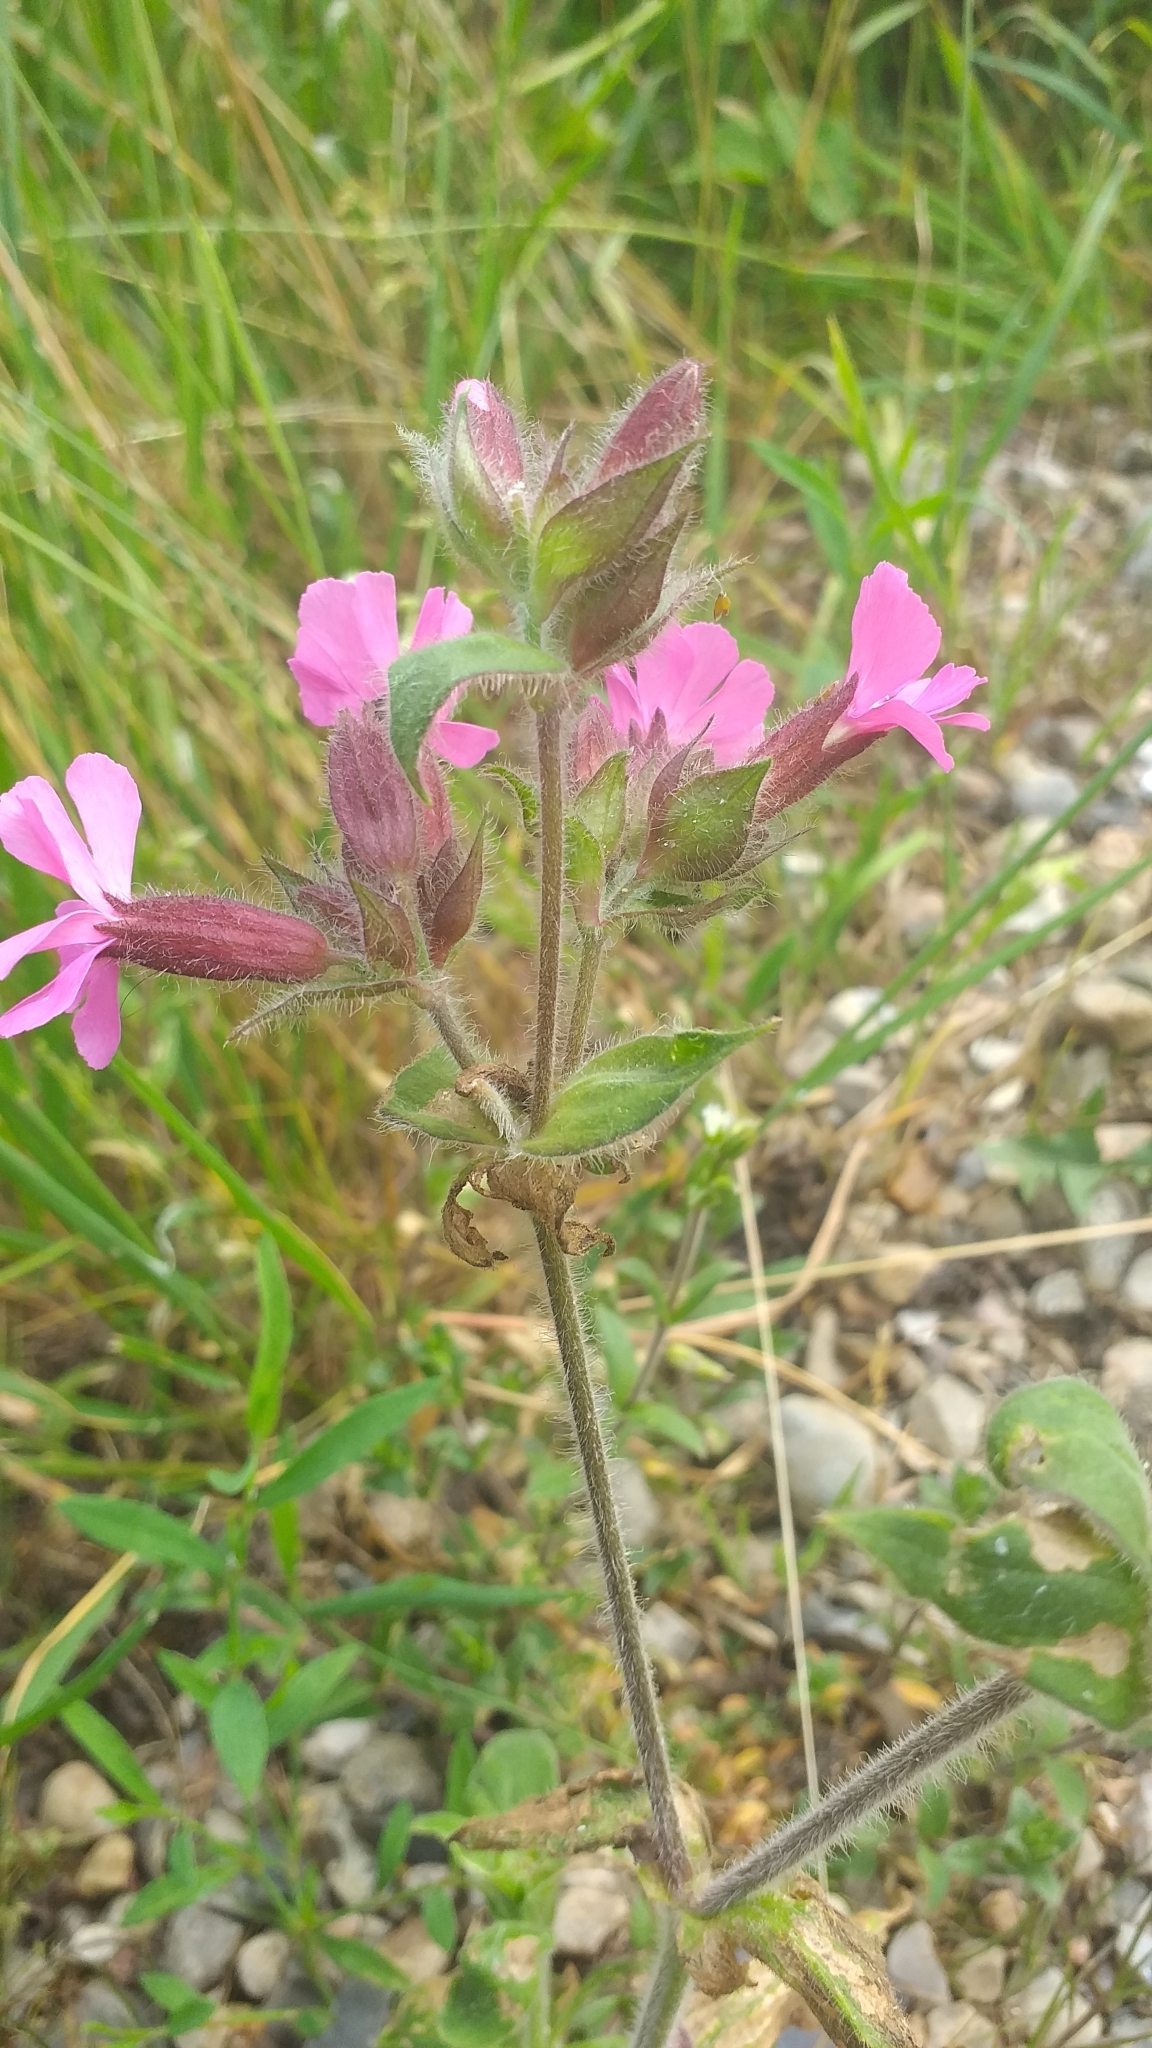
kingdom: Plantae
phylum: Tracheophyta
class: Magnoliopsida
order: Caryophyllales
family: Caryophyllaceae
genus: Silene
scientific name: Silene dioica
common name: Red campion
